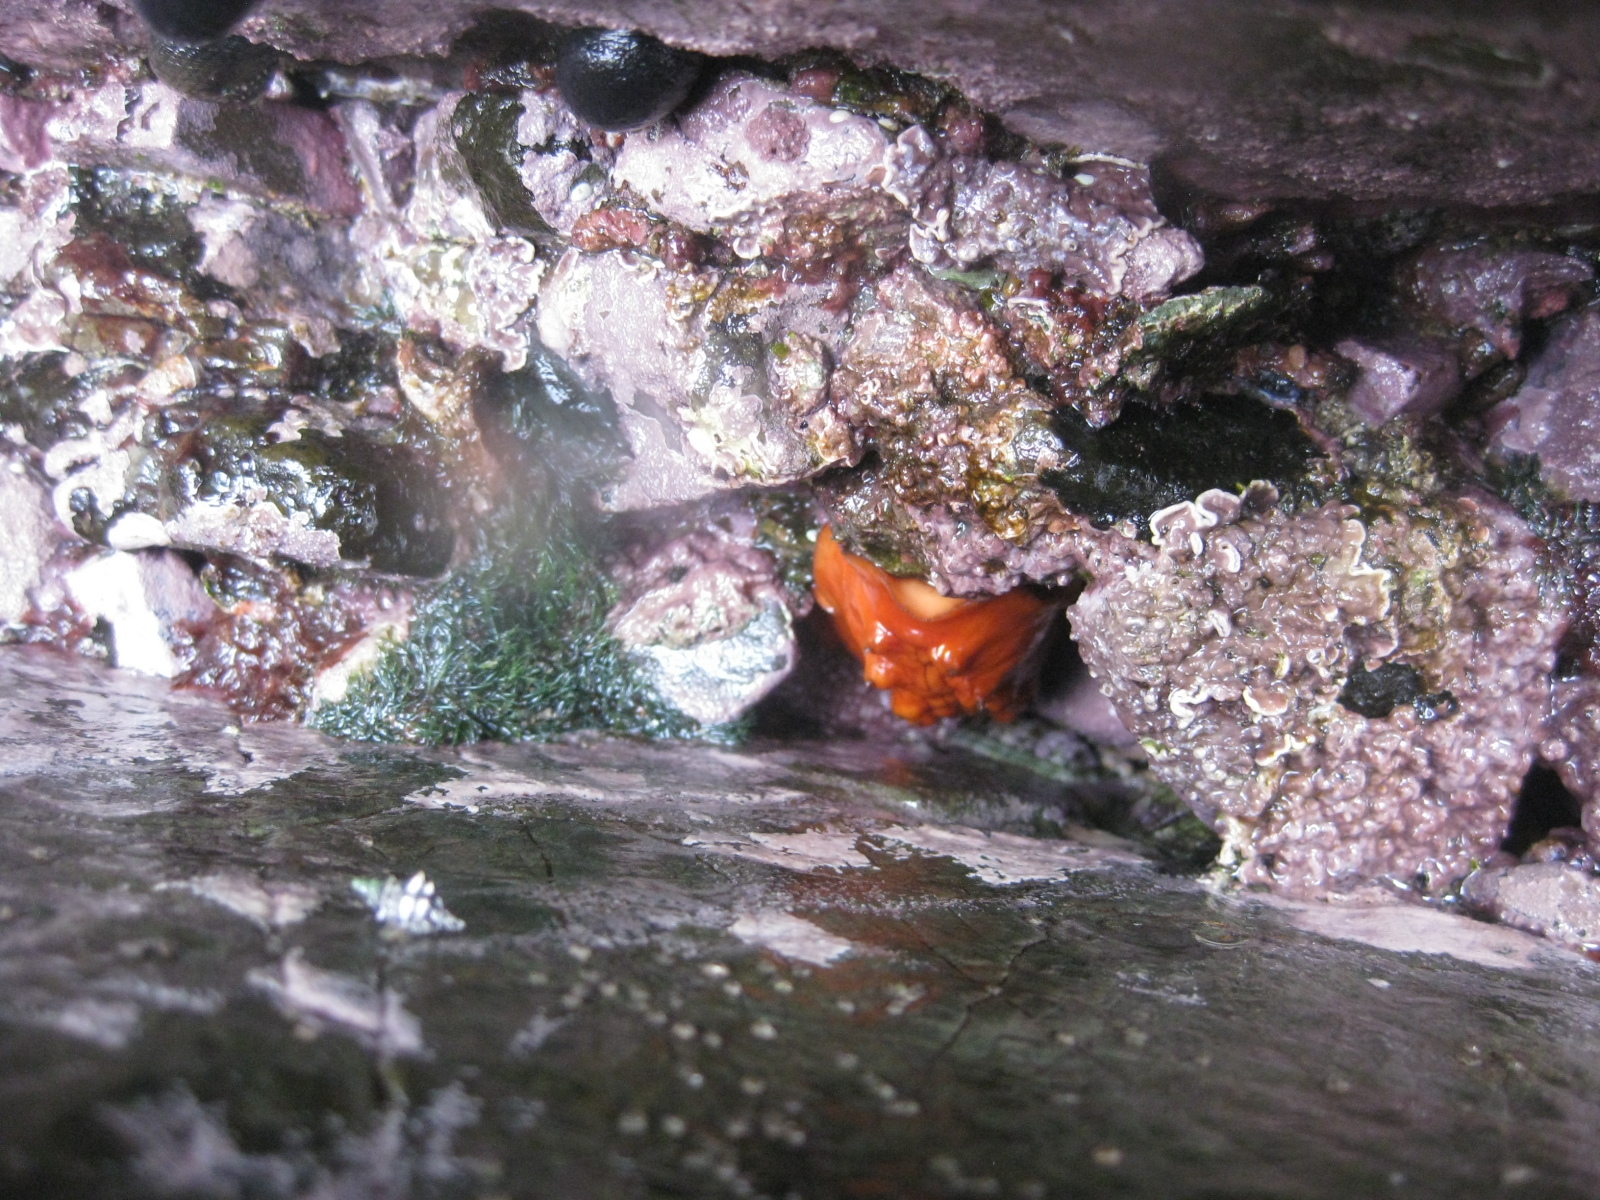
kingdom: Animalia
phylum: Mollusca
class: Polyplacophora
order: Chitonida
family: Acanthochitonidae
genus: Cryptoconchus
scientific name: Cryptoconchus porosus
